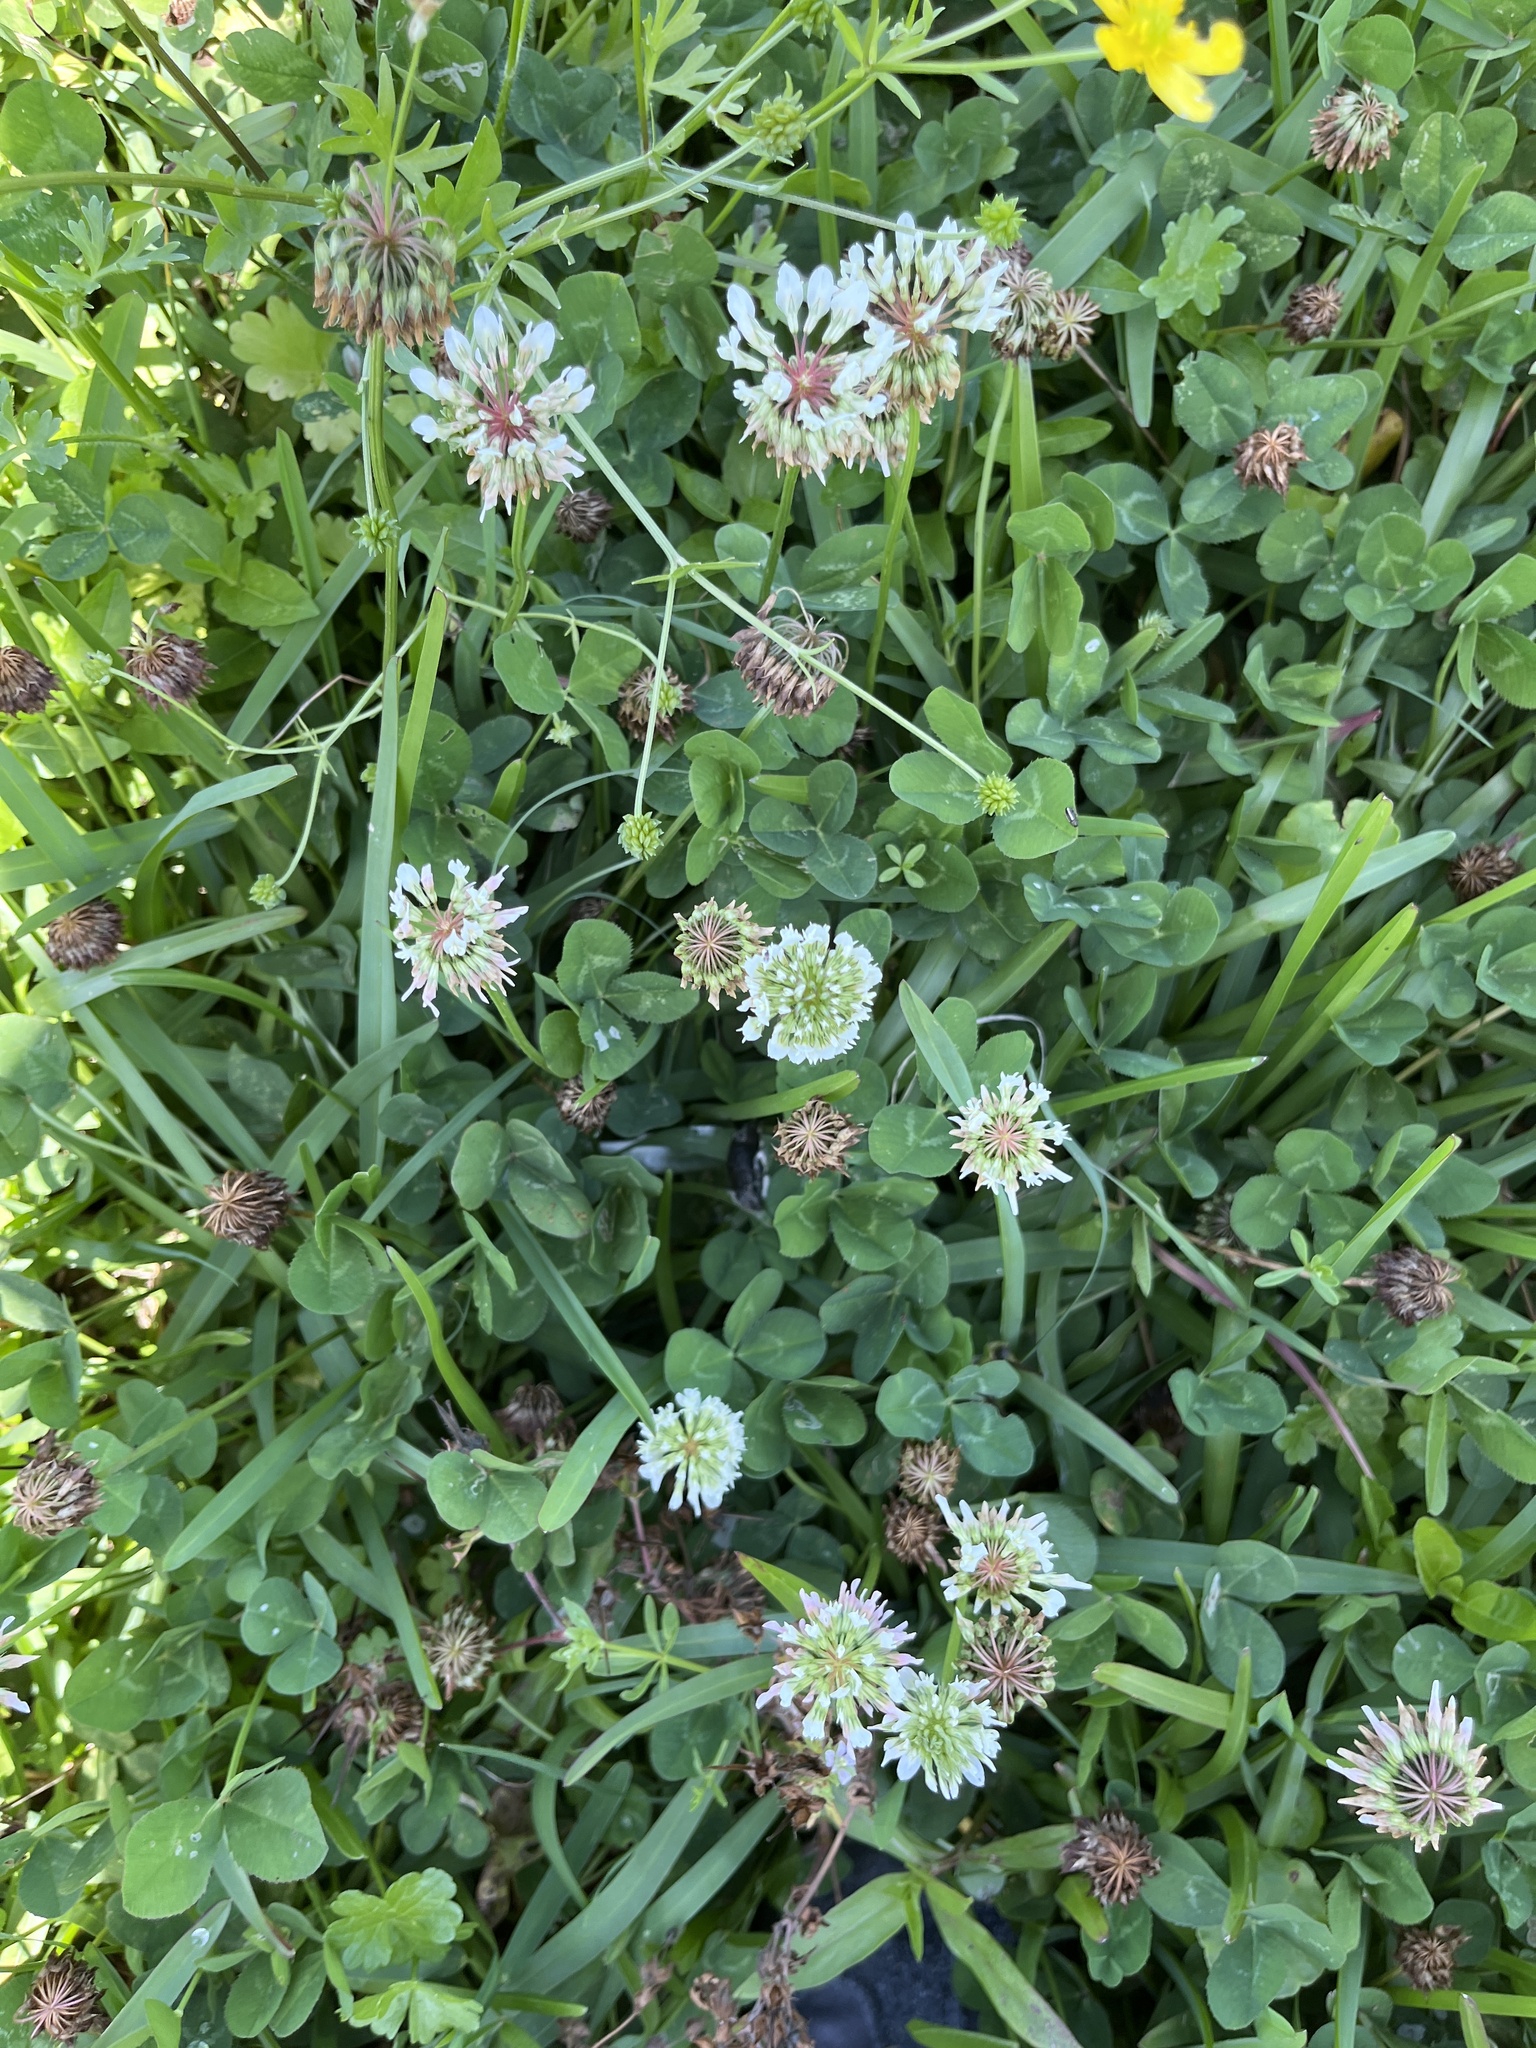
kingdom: Plantae
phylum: Tracheophyta
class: Magnoliopsida
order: Fabales
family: Fabaceae
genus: Trifolium
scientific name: Trifolium repens
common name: White clover
